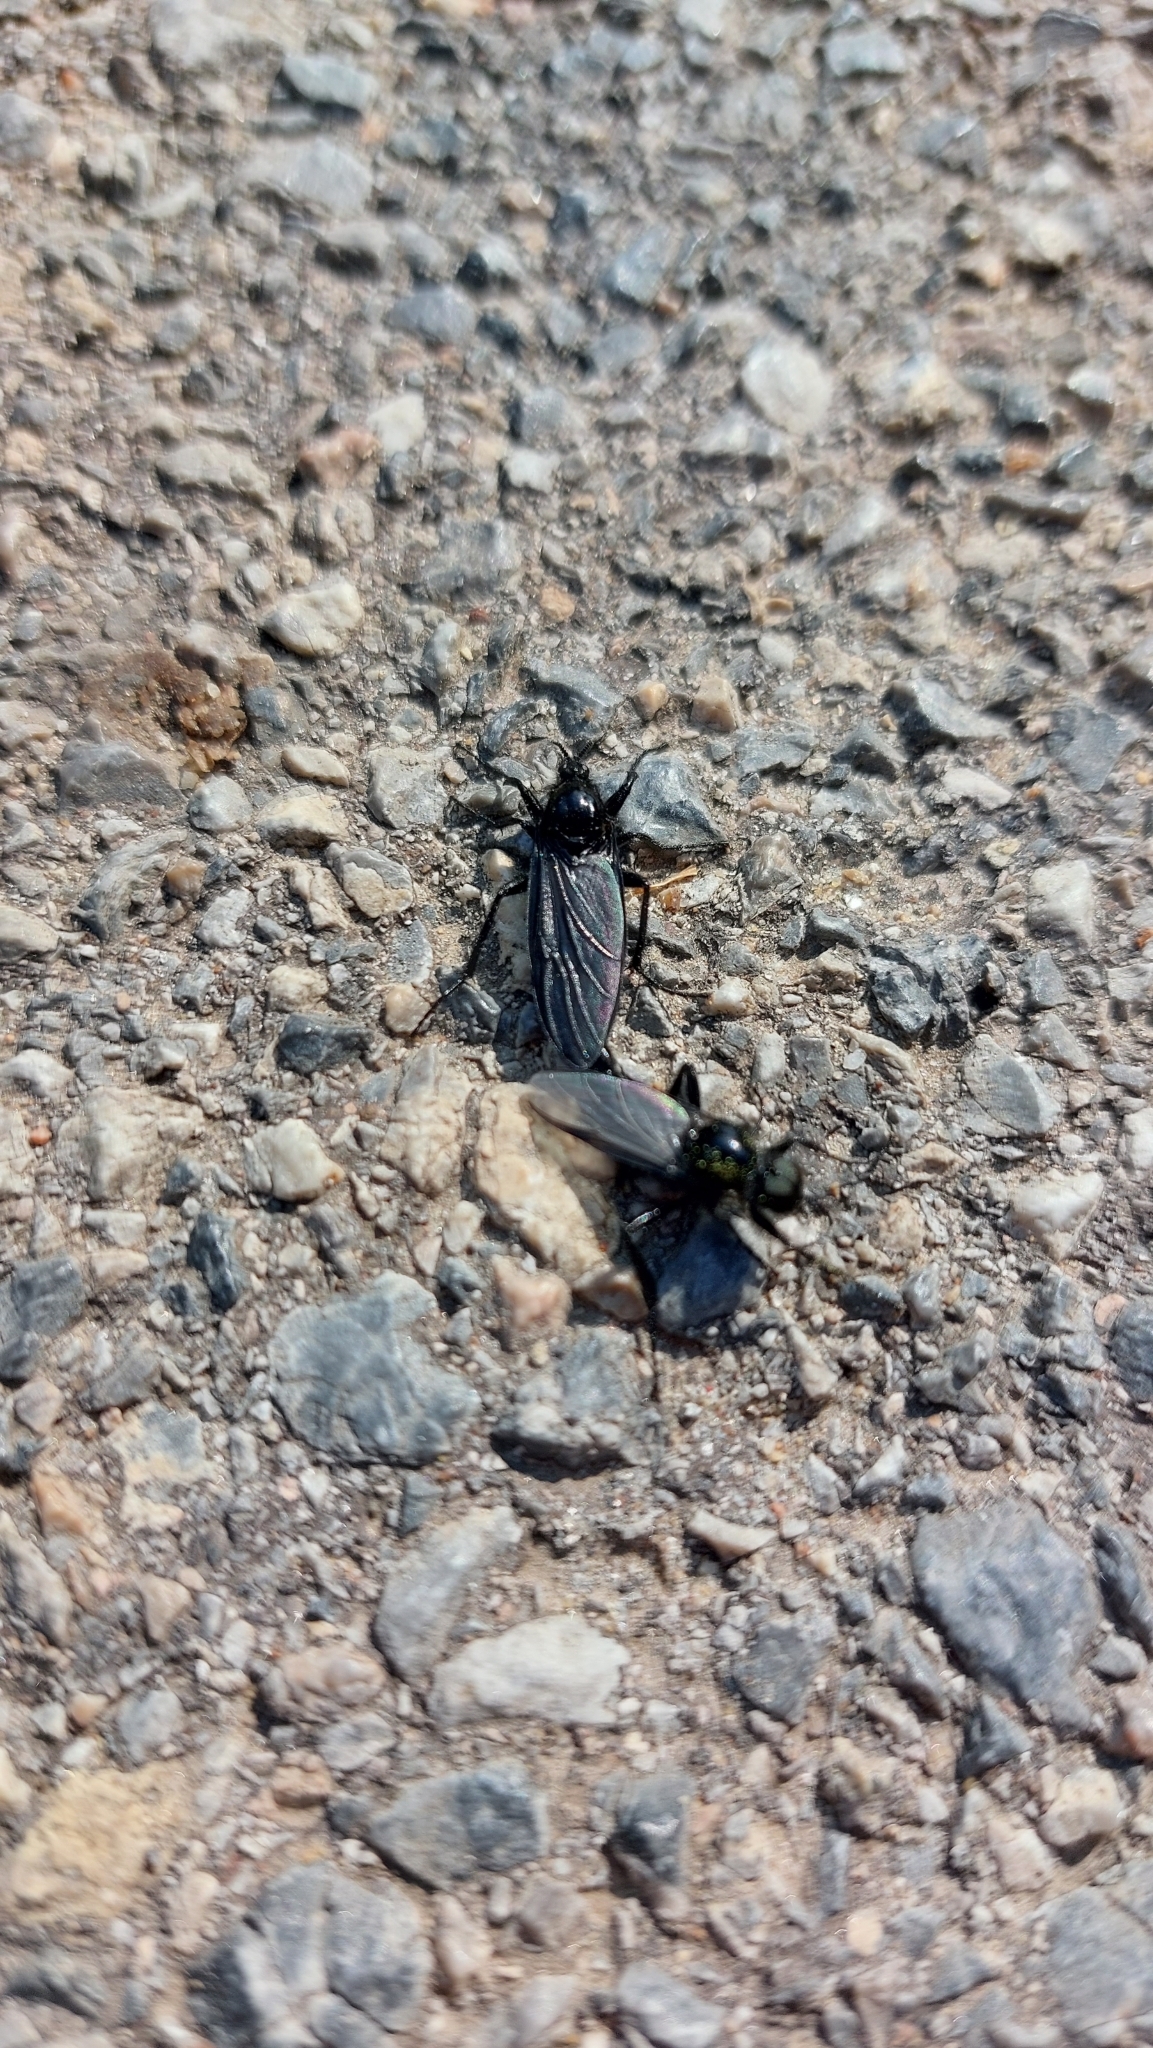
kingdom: Animalia
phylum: Arthropoda
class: Insecta
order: Diptera
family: Bibionidae
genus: Bibio
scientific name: Bibio marci
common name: St marks fly
